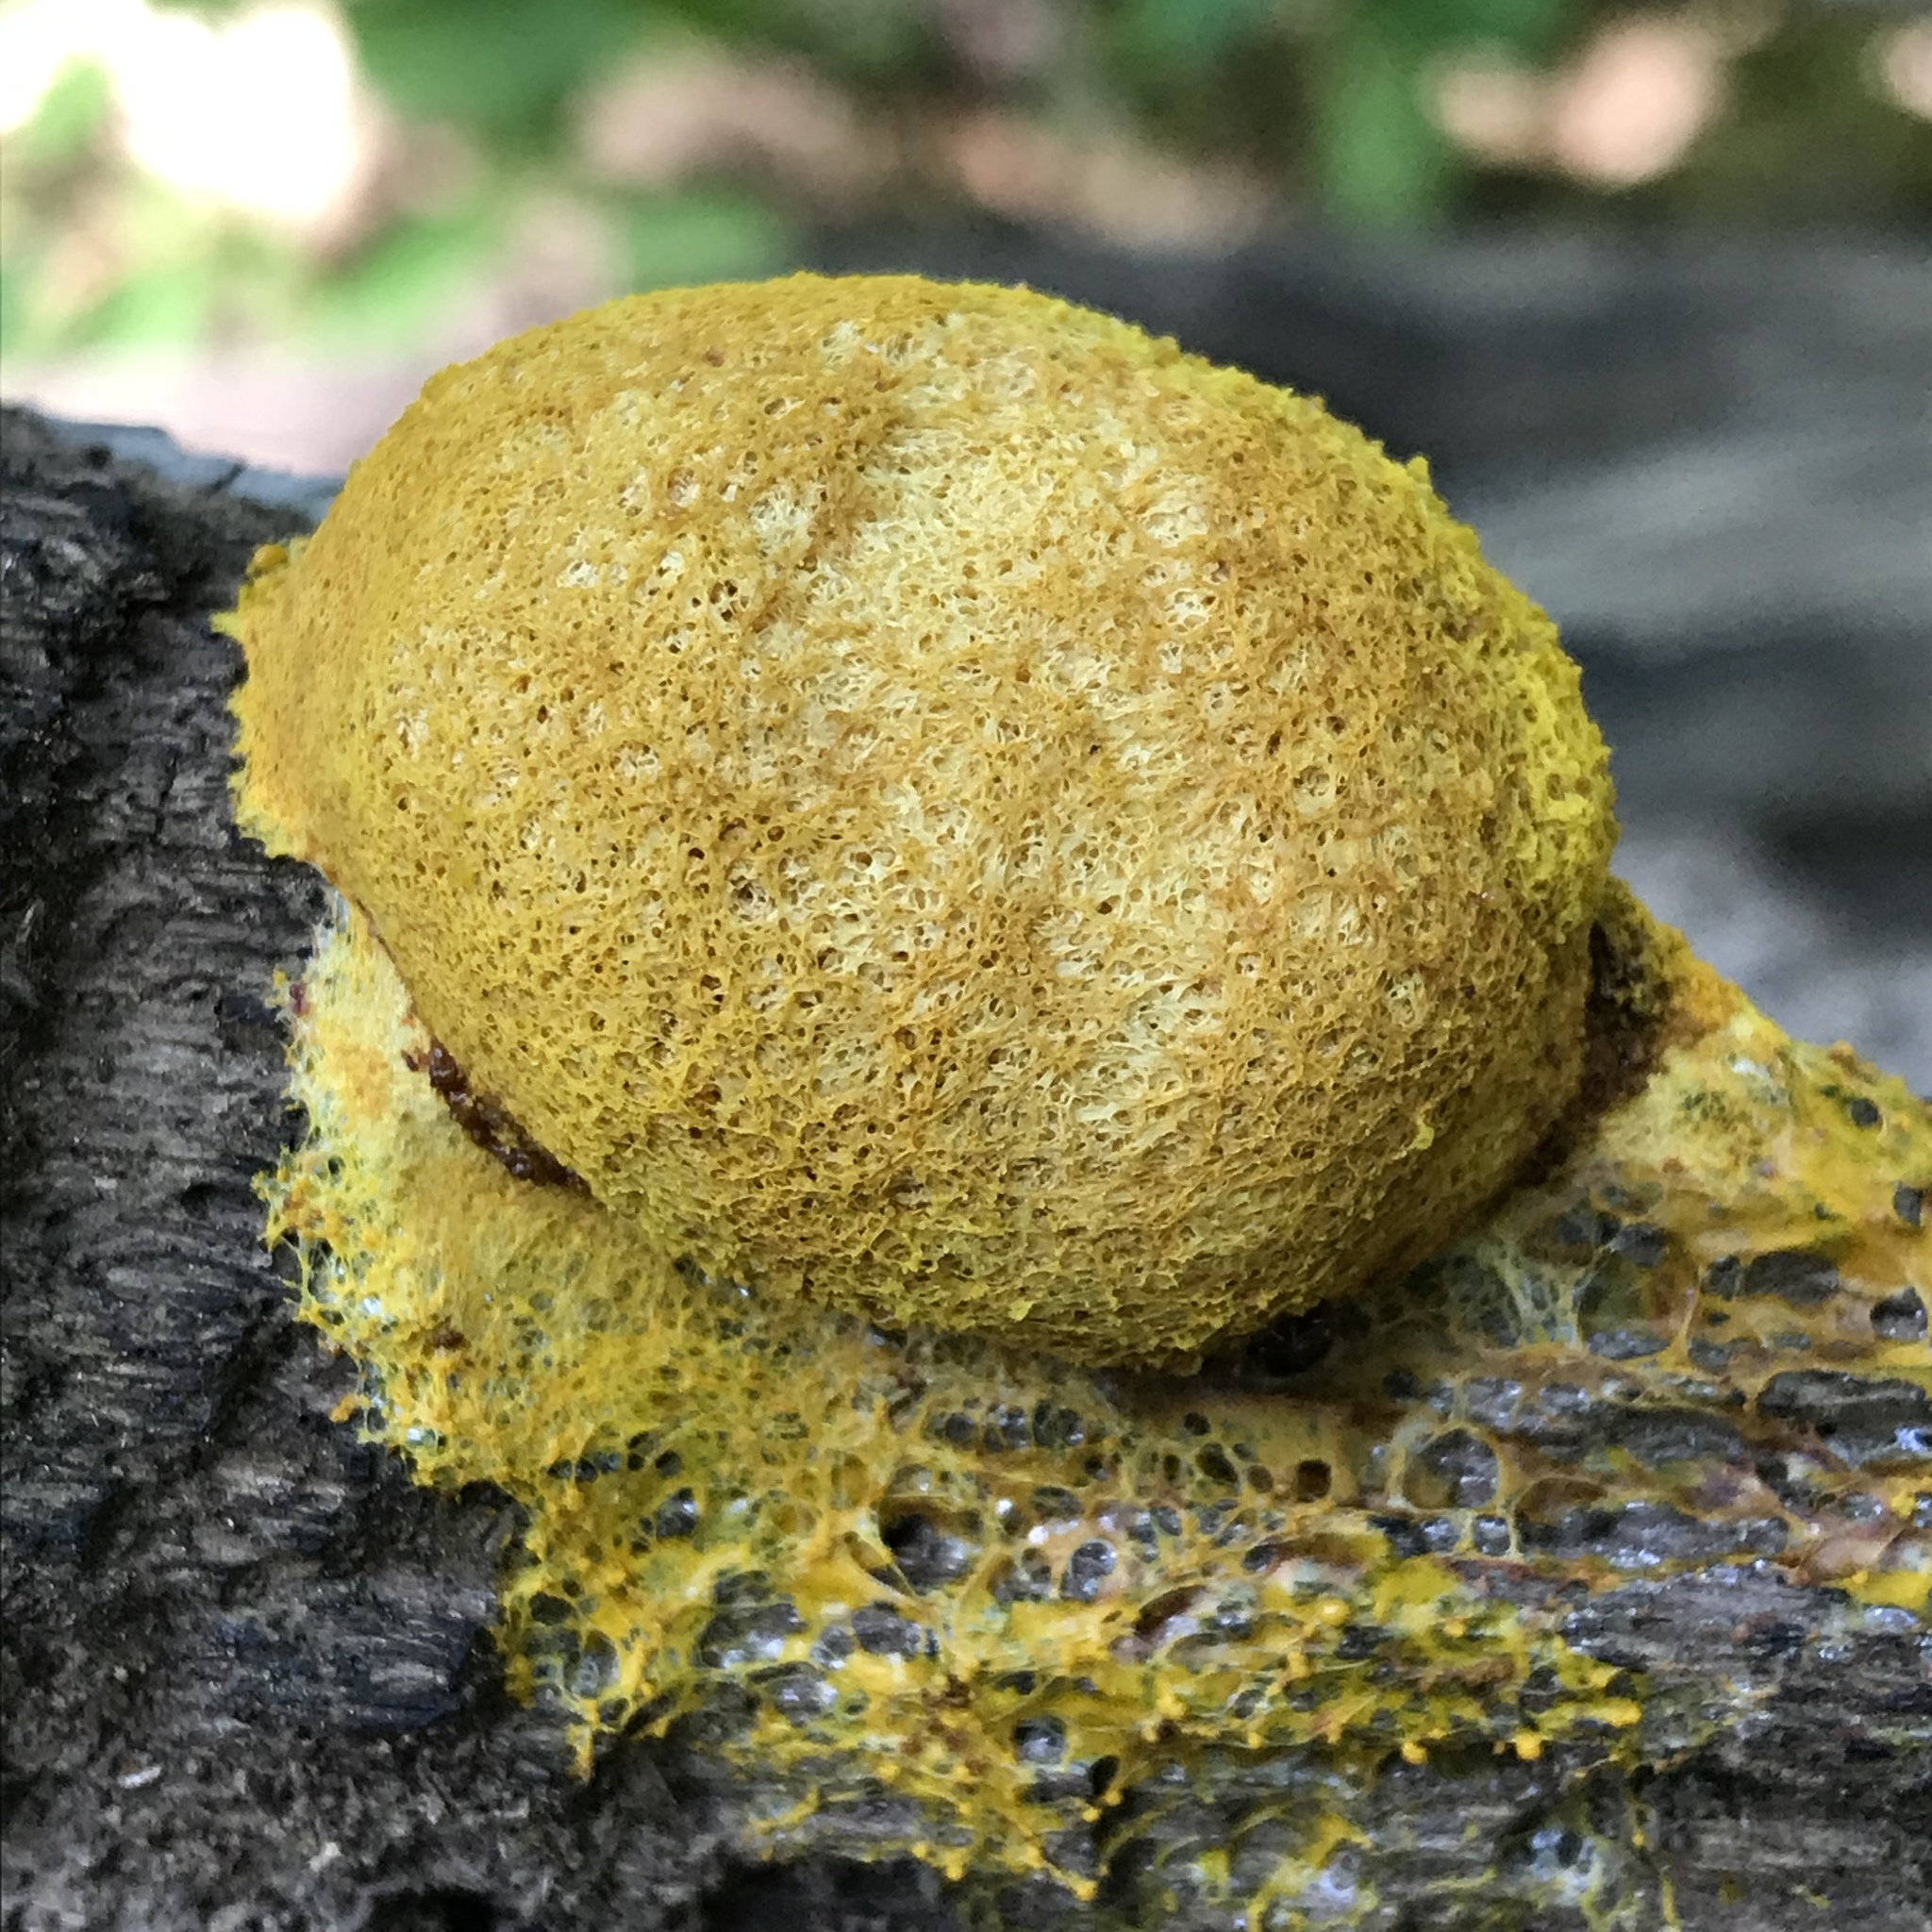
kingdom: Protozoa
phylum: Mycetozoa
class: Myxomycetes
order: Physarales
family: Physaraceae
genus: Fuligo
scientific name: Fuligo septica
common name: Dog vomit slime mold
